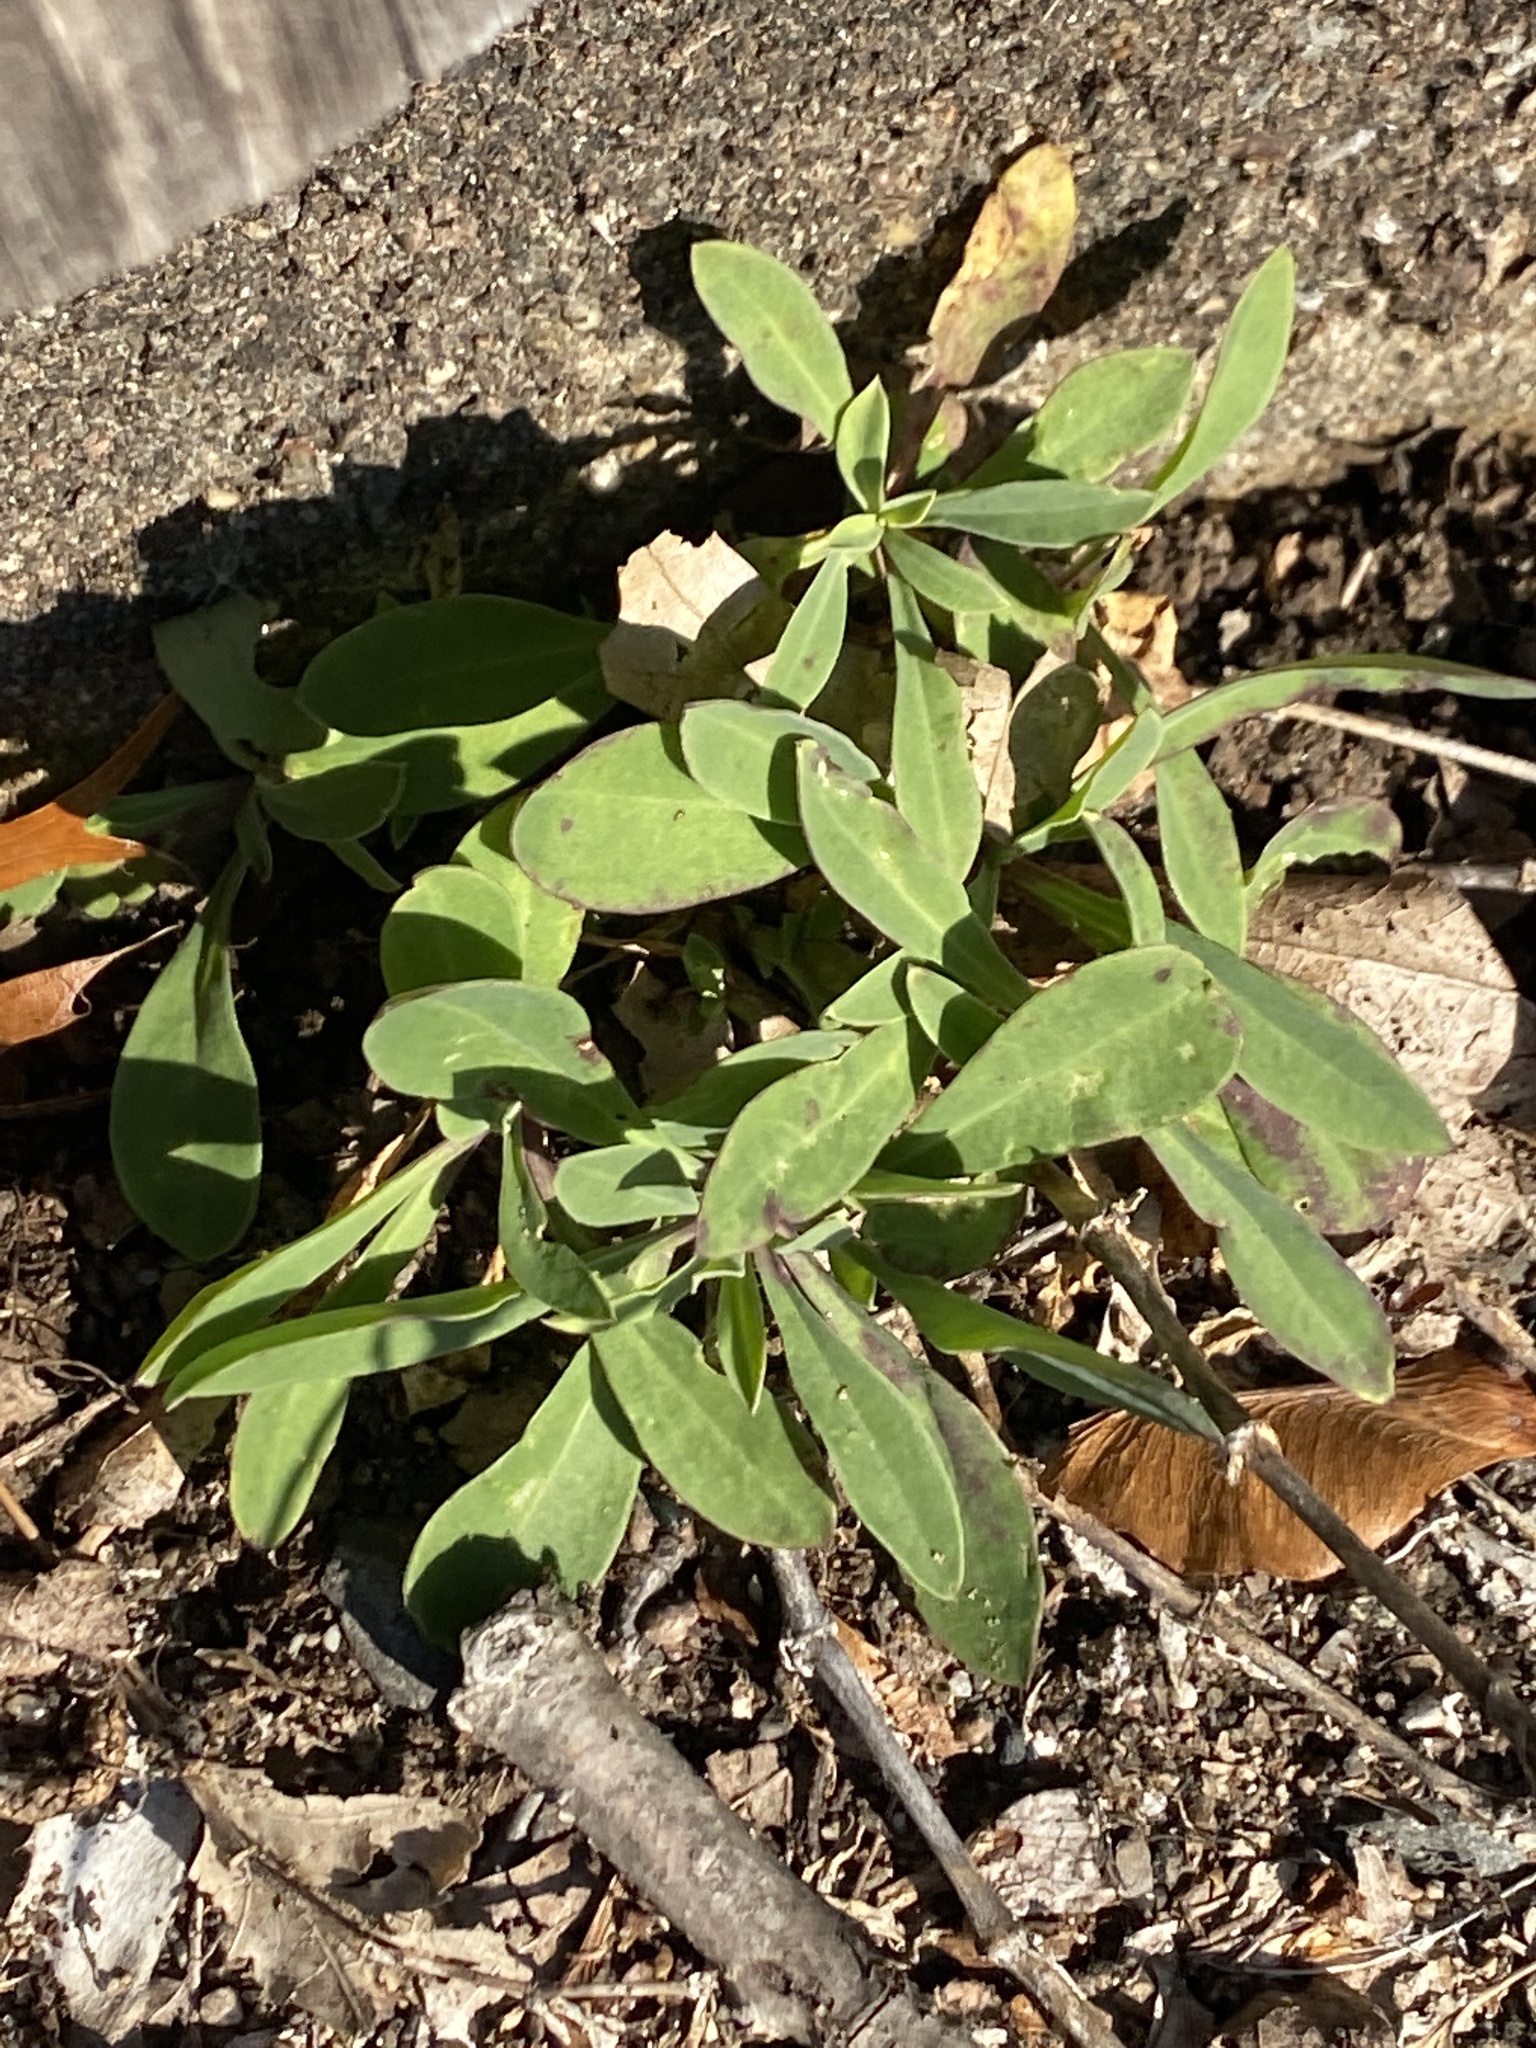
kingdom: Plantae
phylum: Tracheophyta
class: Magnoliopsida
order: Caryophyllales
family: Caryophyllaceae
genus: Silene
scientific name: Silene vulgaris
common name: Bladder campion
